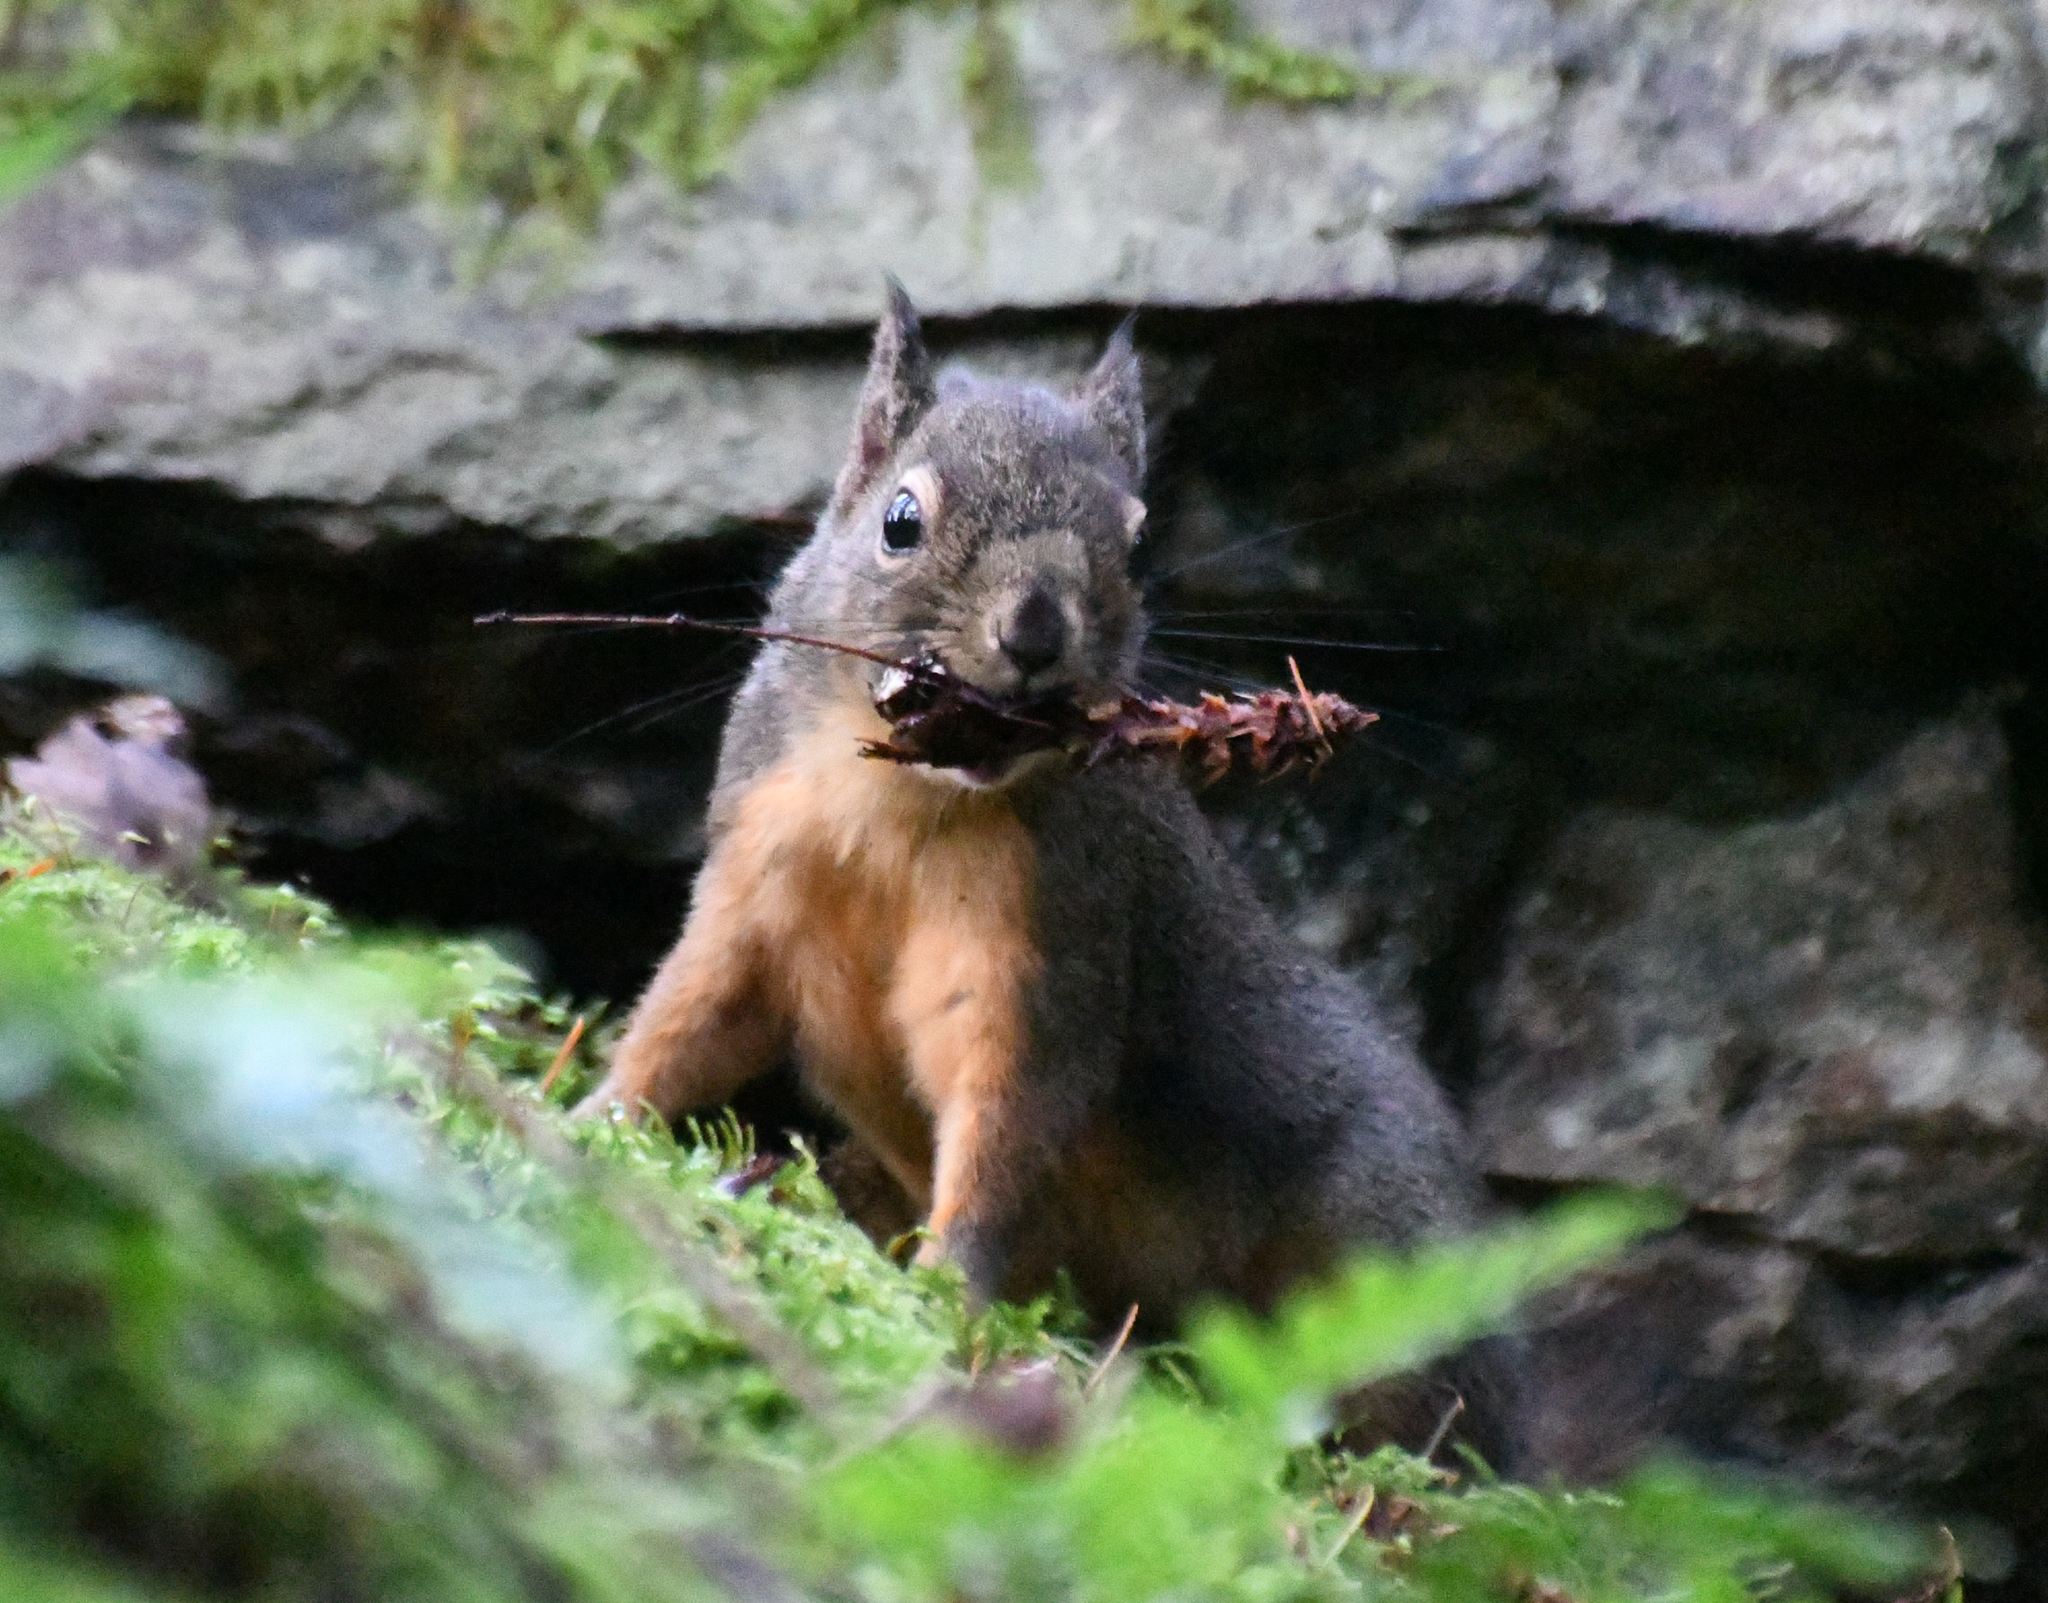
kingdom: Animalia
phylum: Chordata
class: Mammalia
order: Rodentia
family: Sciuridae
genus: Tamiasciurus
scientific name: Tamiasciurus douglasii
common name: Douglas's squirrel
